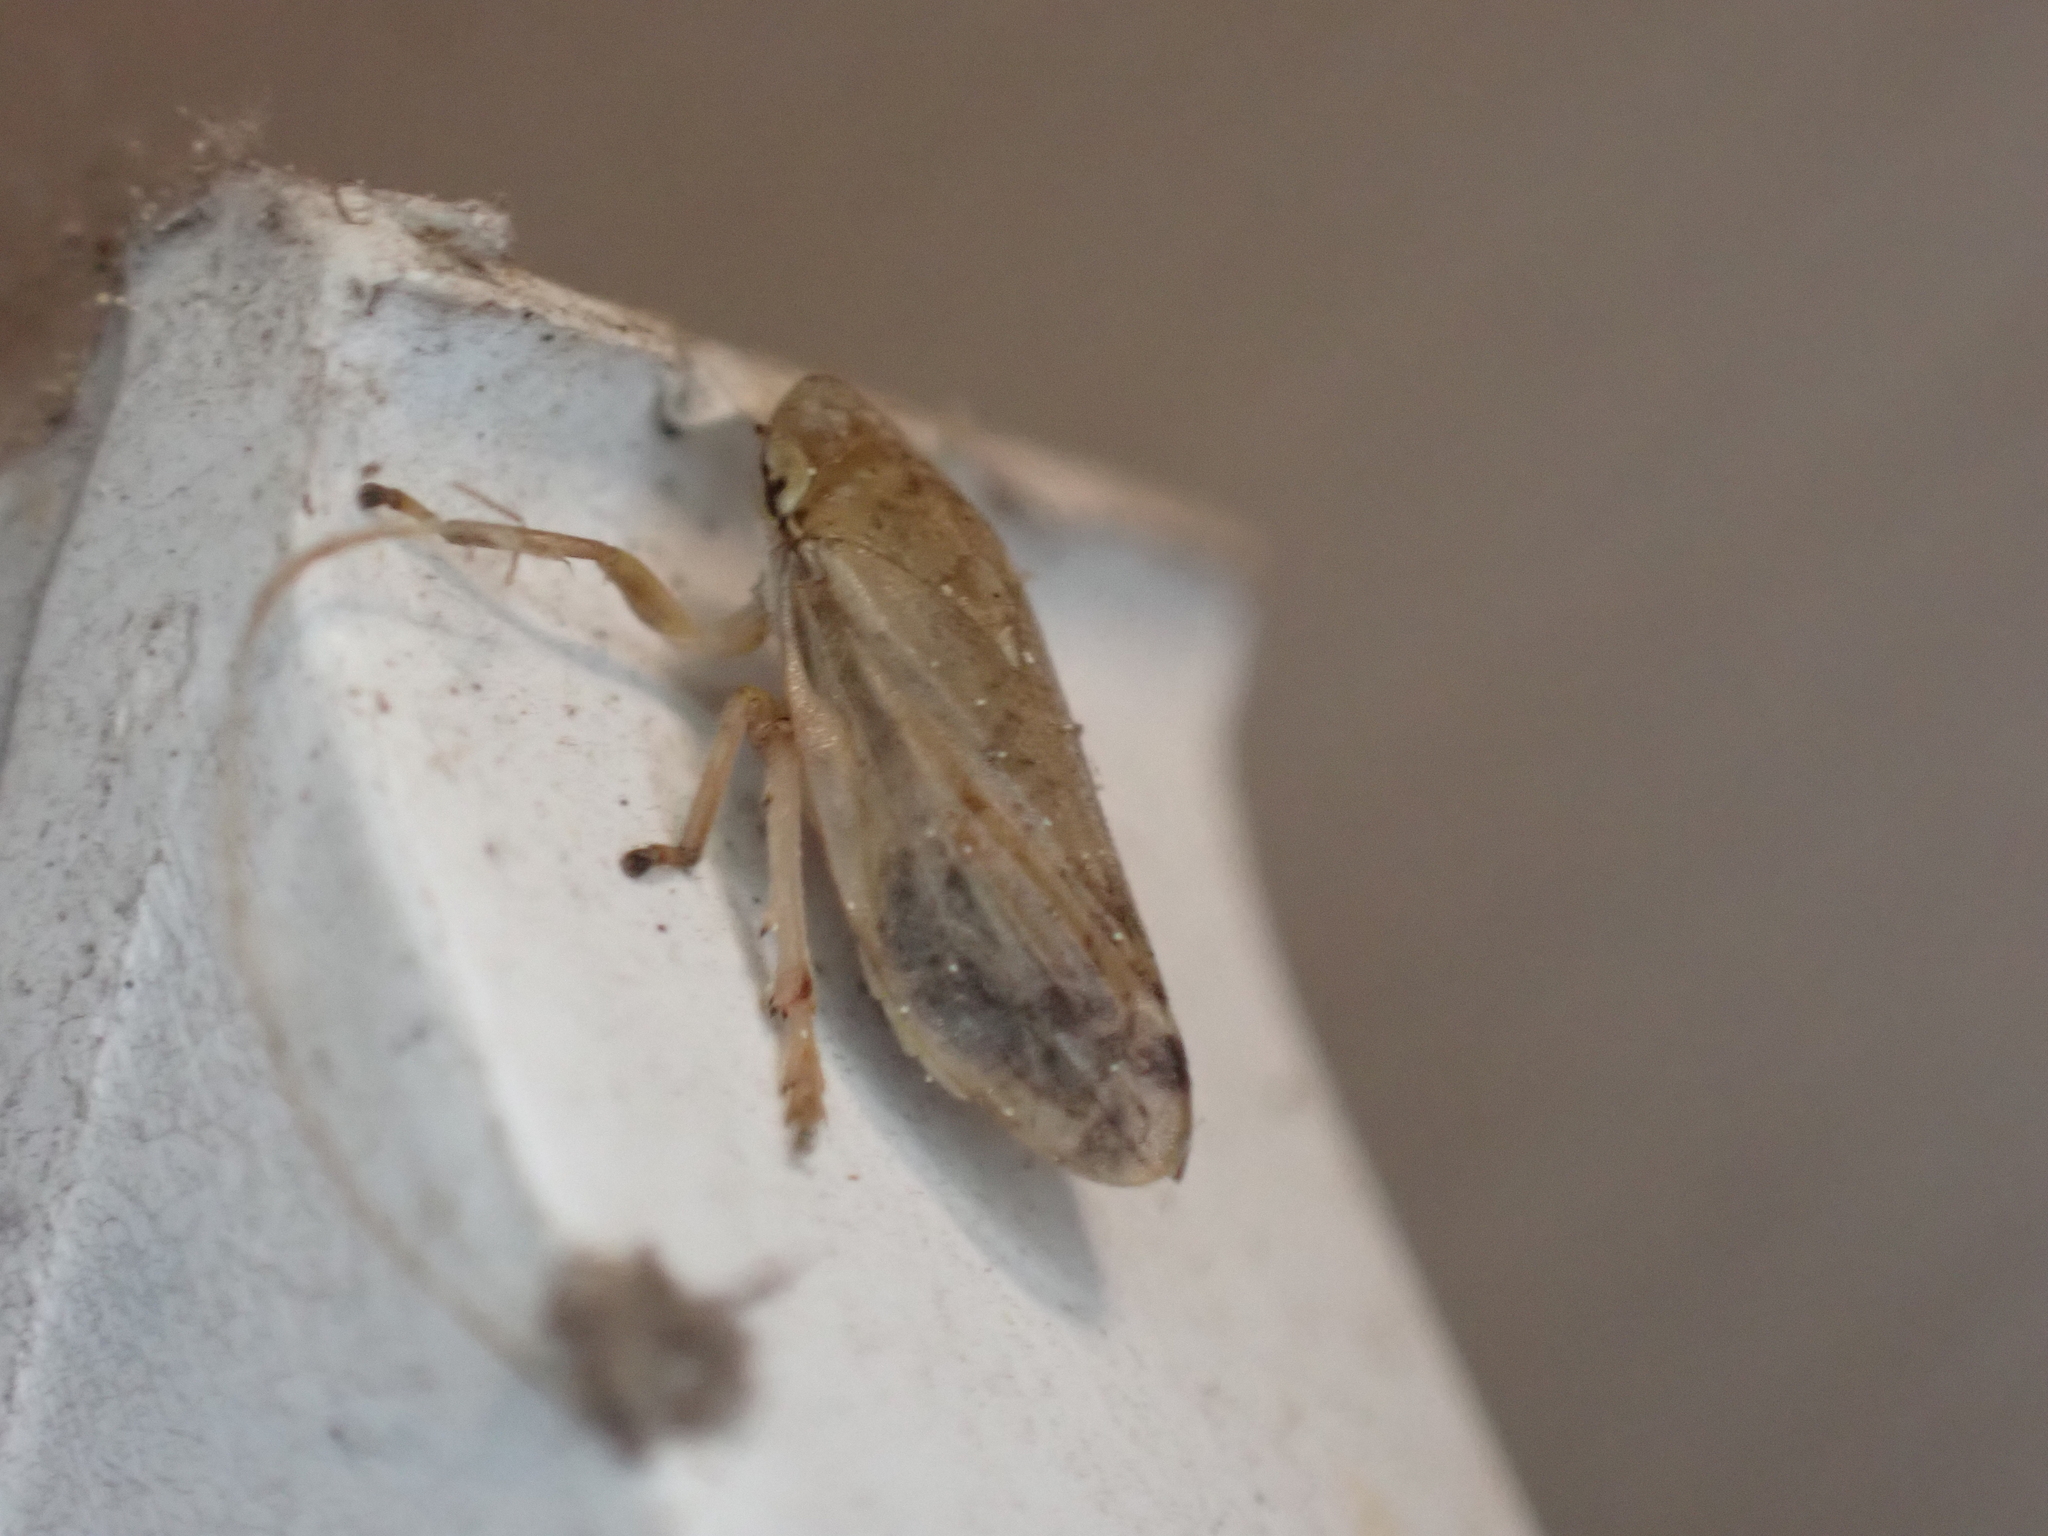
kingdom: Animalia
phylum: Arthropoda
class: Insecta
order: Hemiptera
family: Aphrophoridae
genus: Philaenus
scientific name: Philaenus spumarius
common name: Meadow spittlebug
